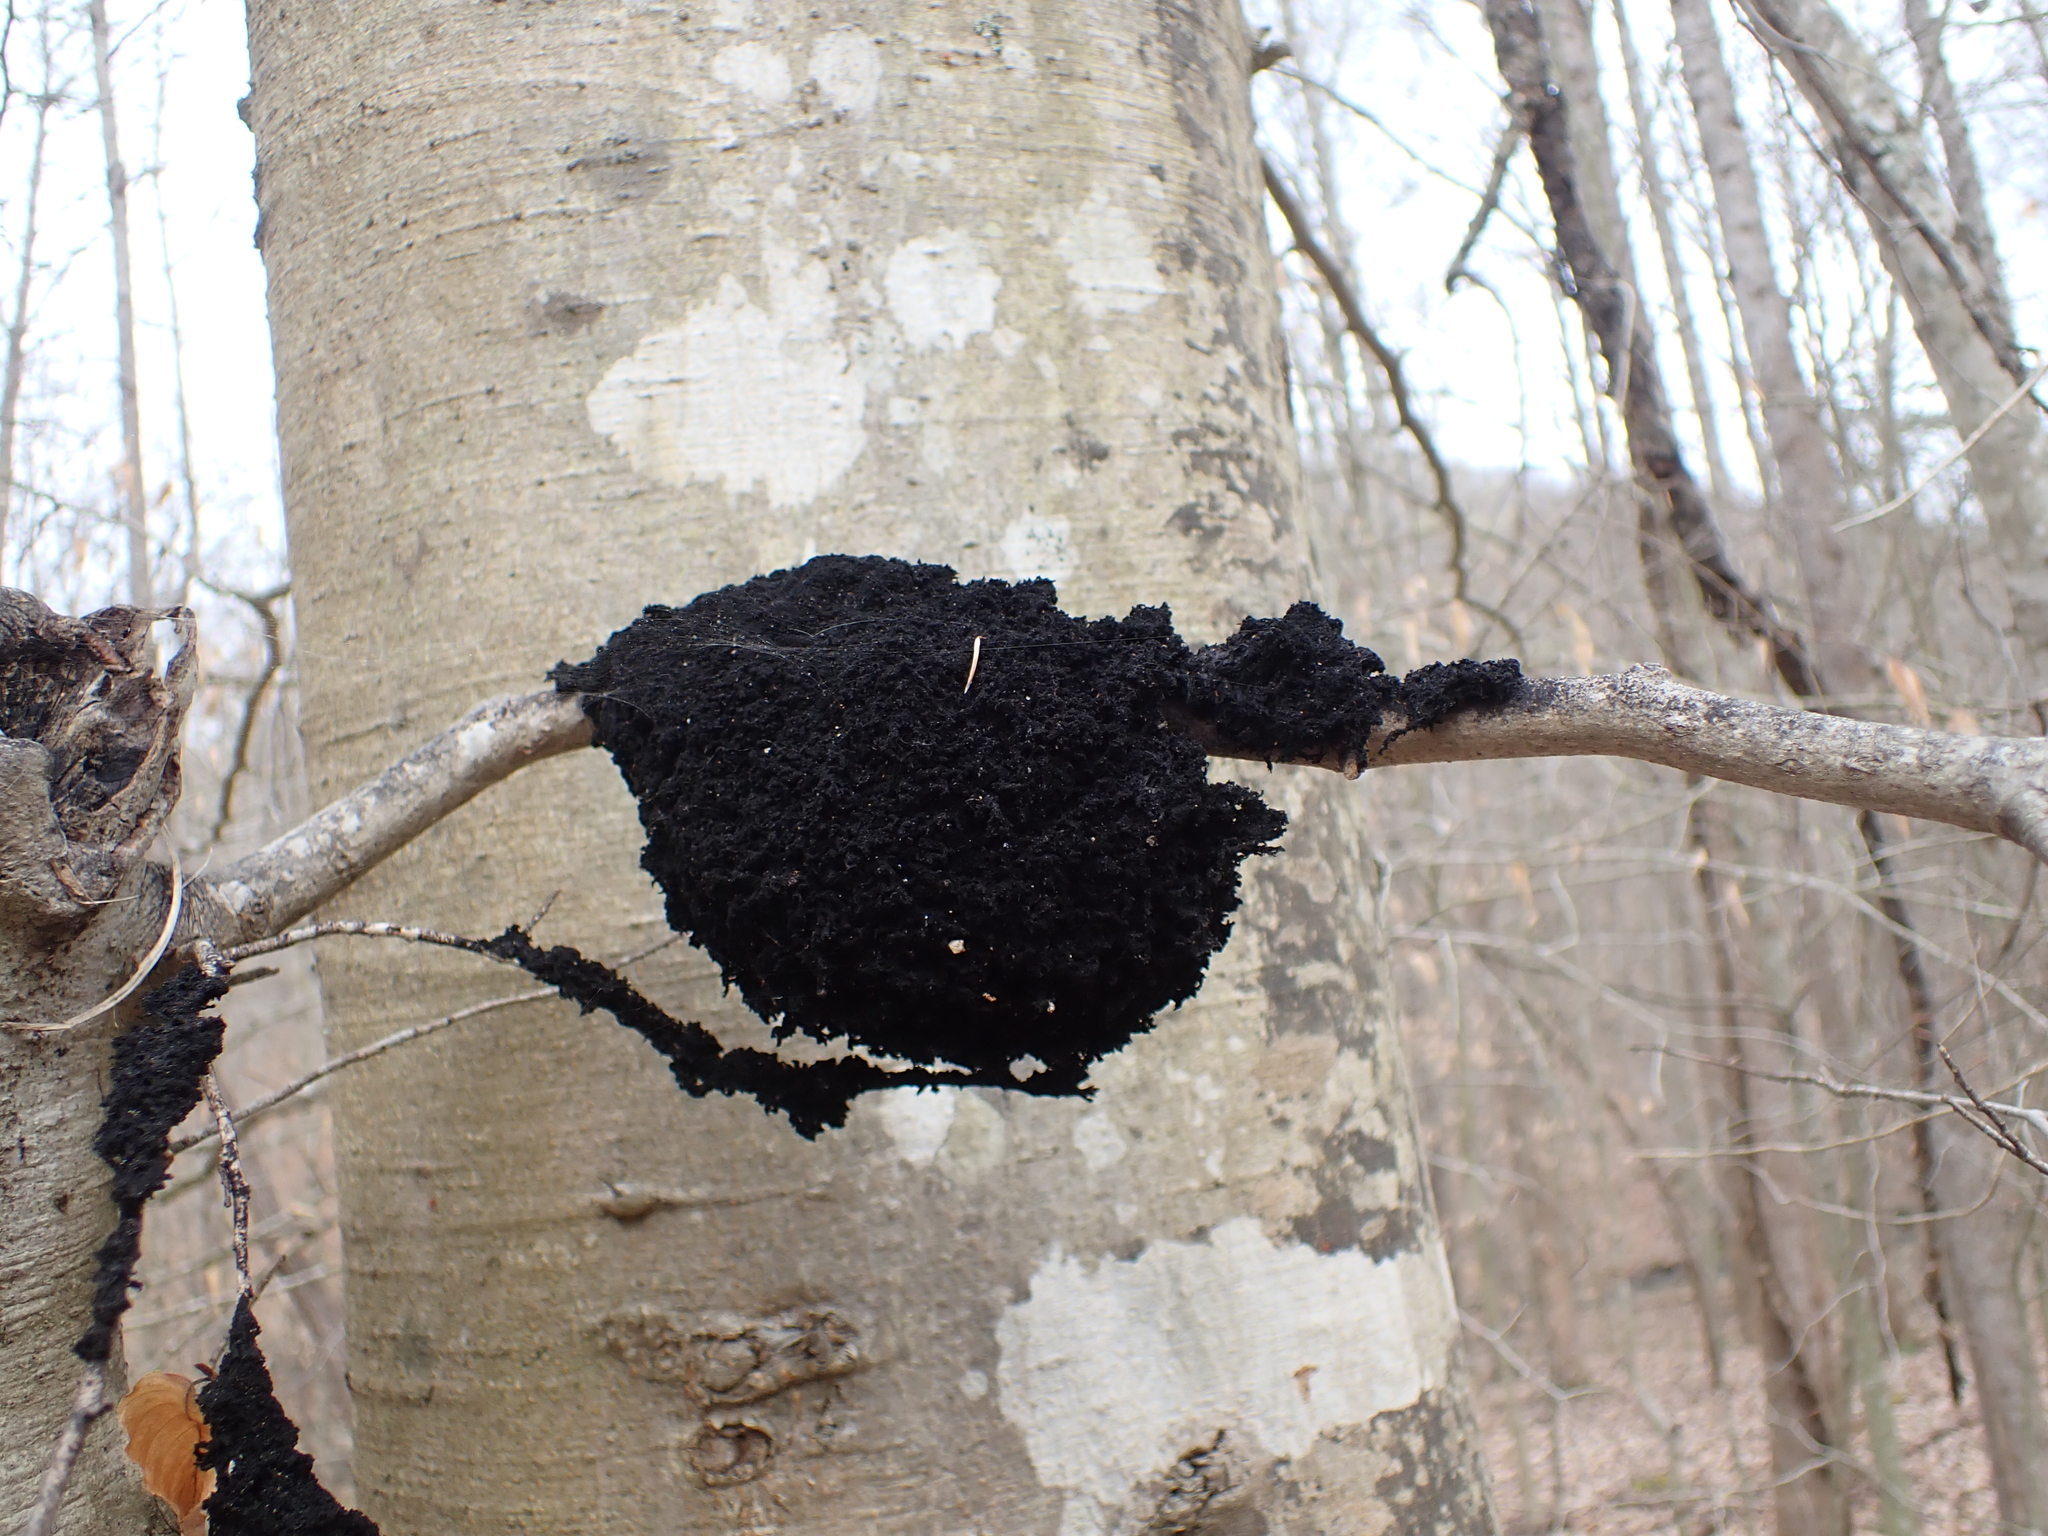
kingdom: Fungi
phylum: Ascomycota
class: Dothideomycetes
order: Capnodiales
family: Capnodiaceae
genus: Scorias
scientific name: Scorias spongiosa
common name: Black sooty mold
